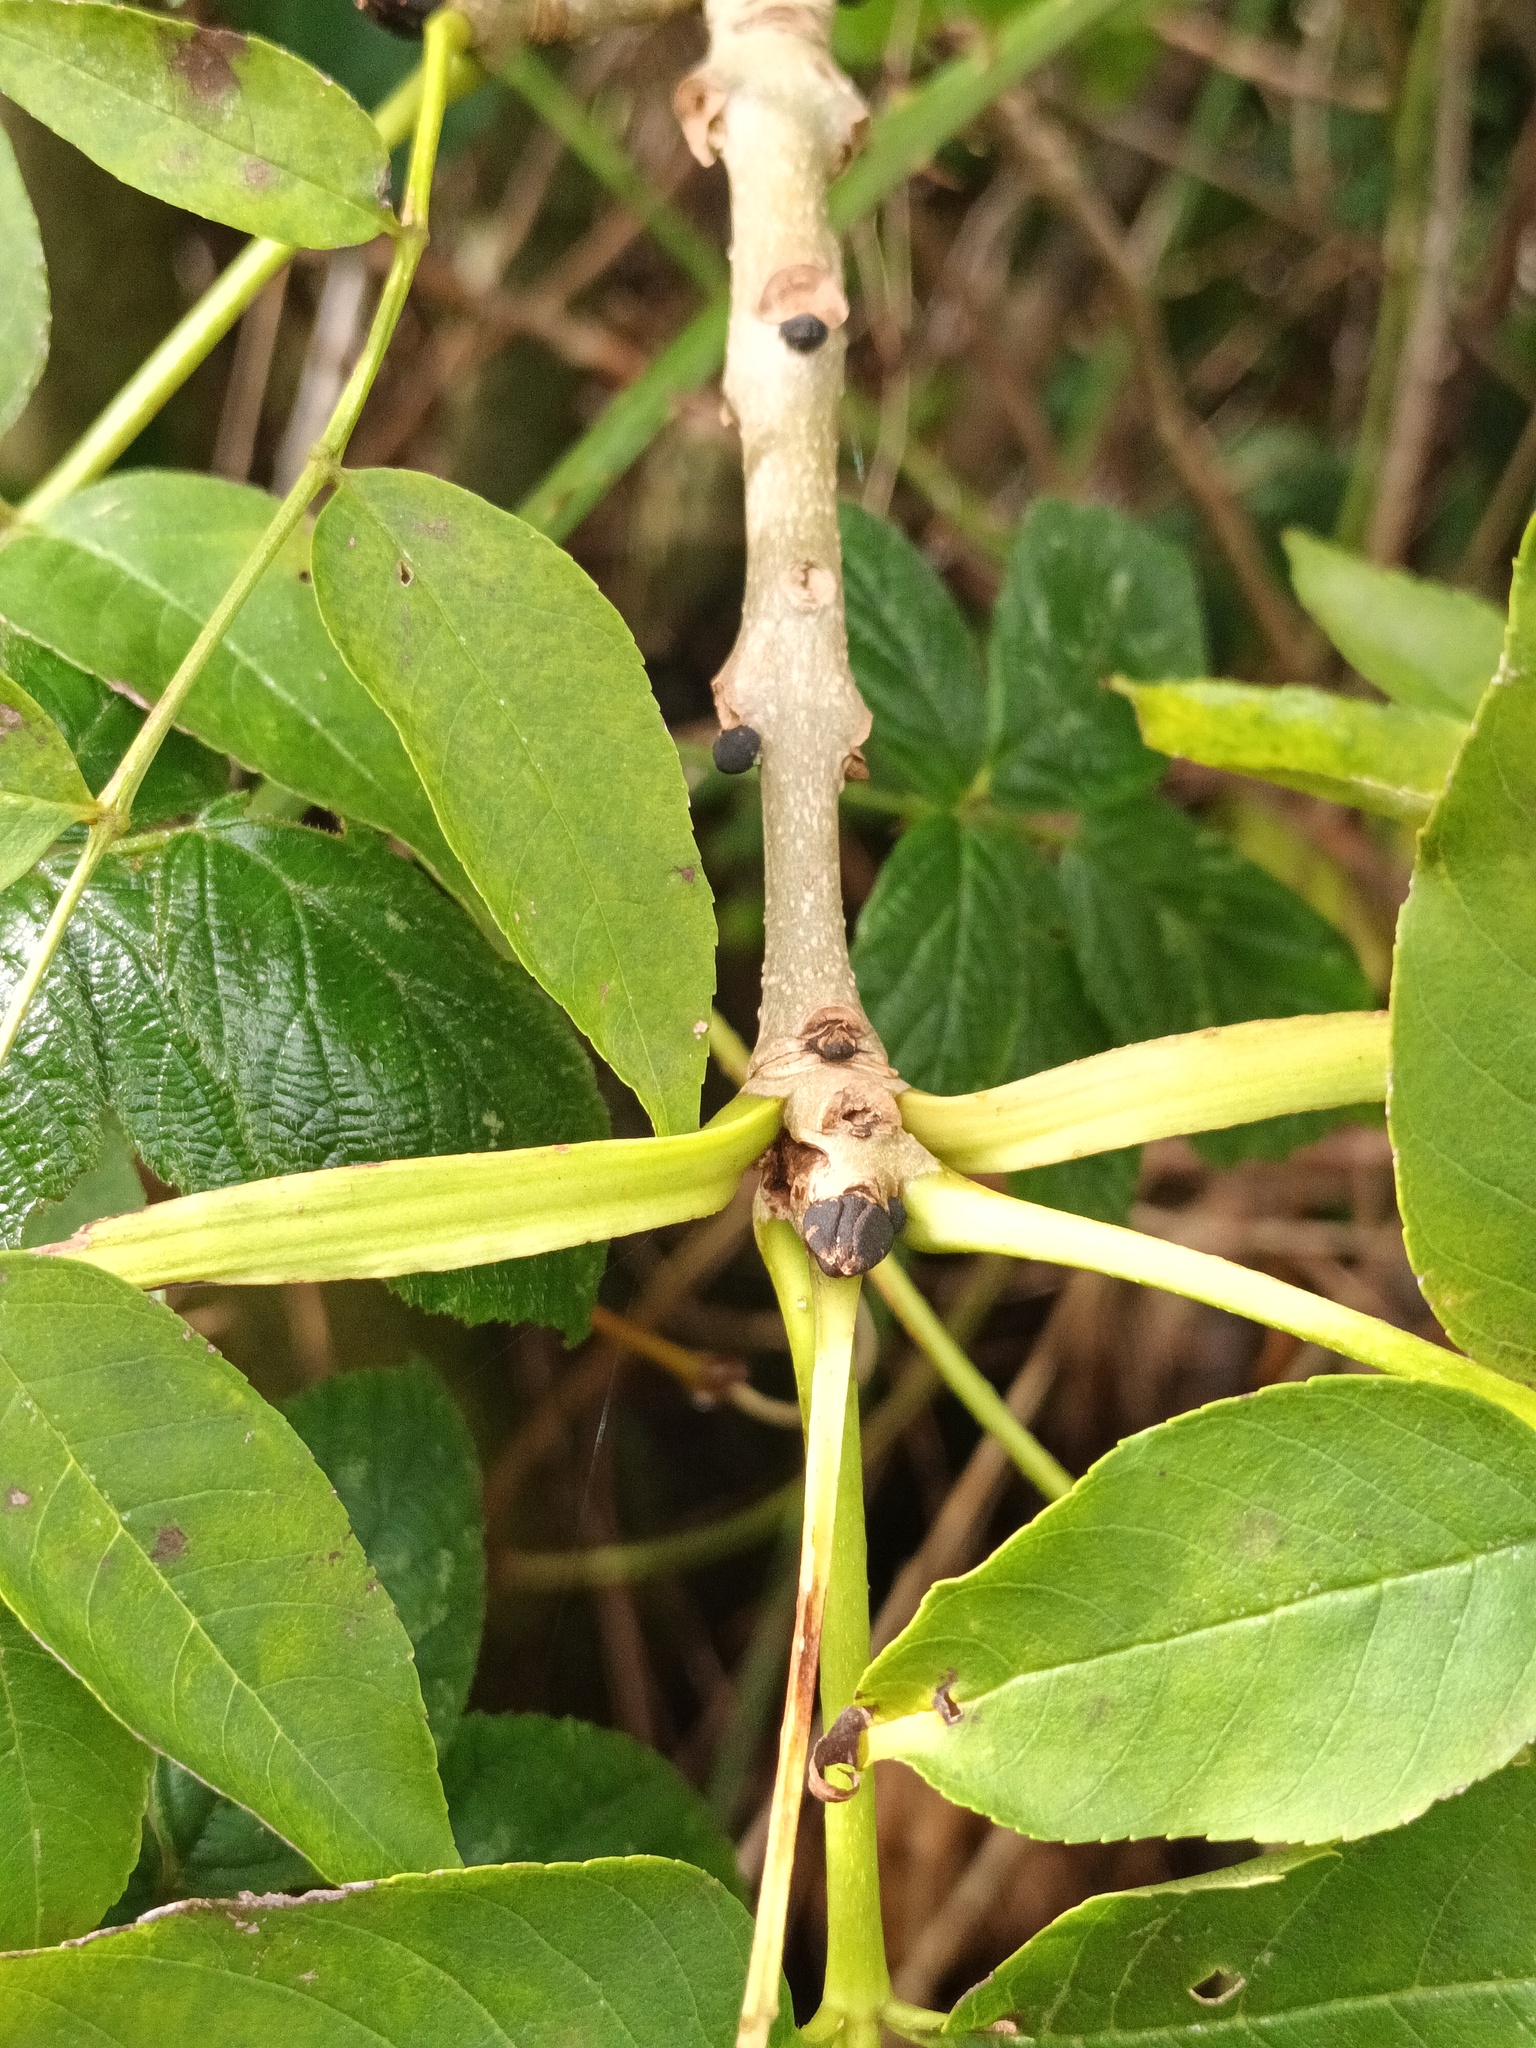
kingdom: Plantae
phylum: Tracheophyta
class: Magnoliopsida
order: Lamiales
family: Oleaceae
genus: Fraxinus
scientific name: Fraxinus excelsior
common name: European ash
